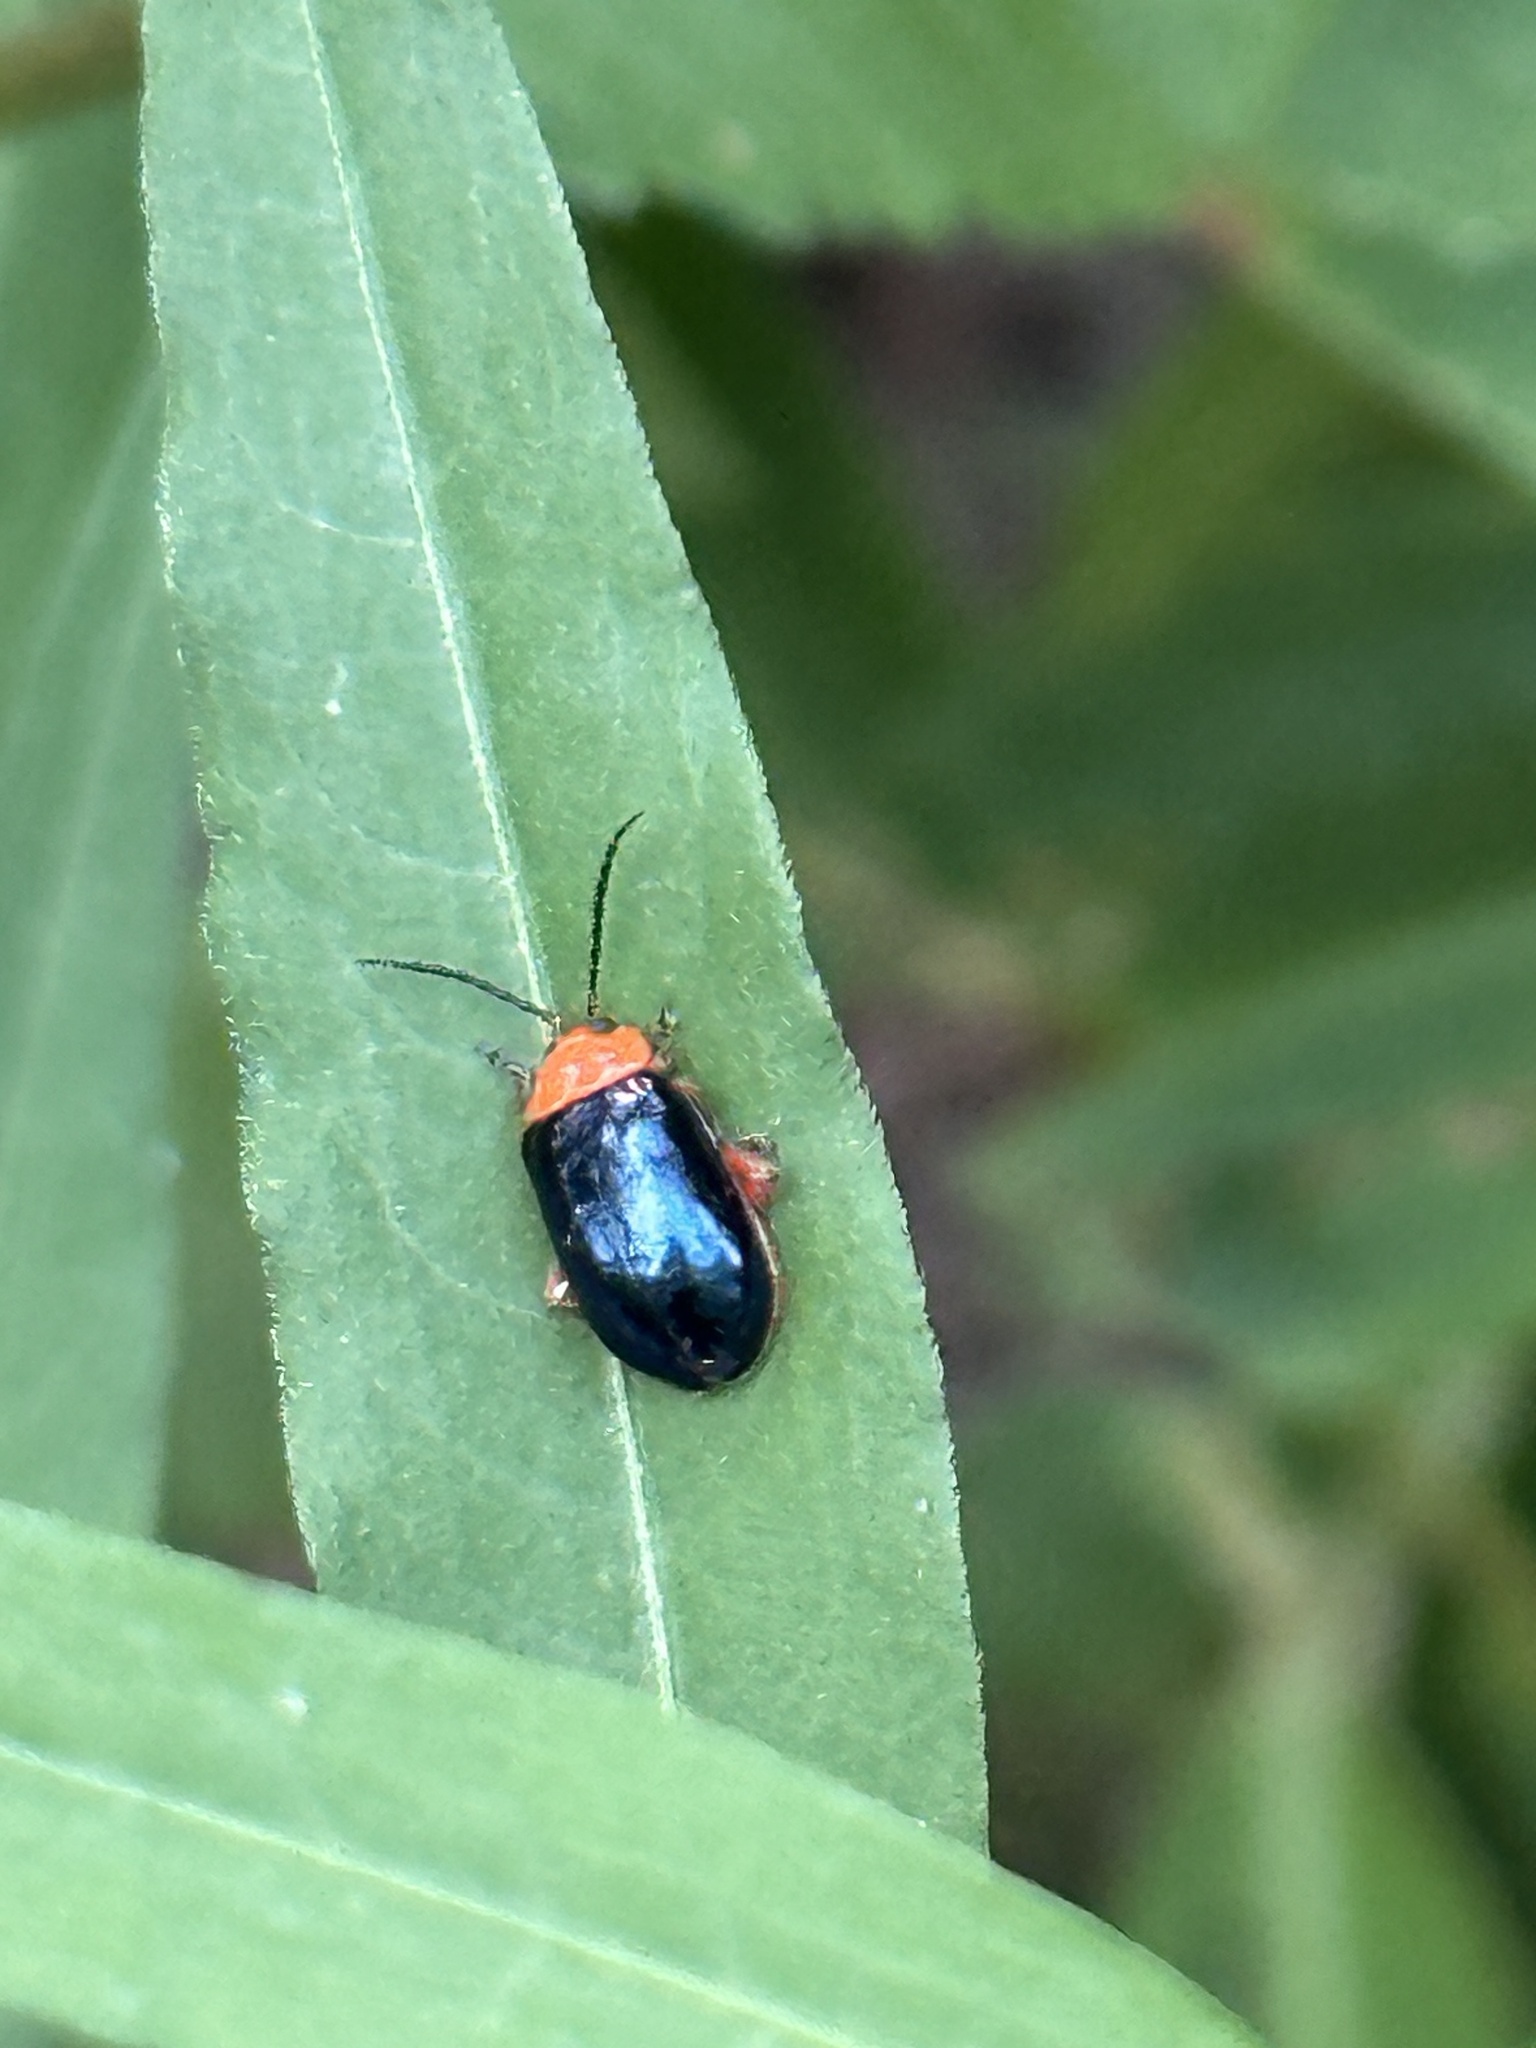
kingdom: Animalia
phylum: Arthropoda
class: Insecta
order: Coleoptera
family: Chrysomelidae
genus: Asphaera
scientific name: Asphaera lustrans
